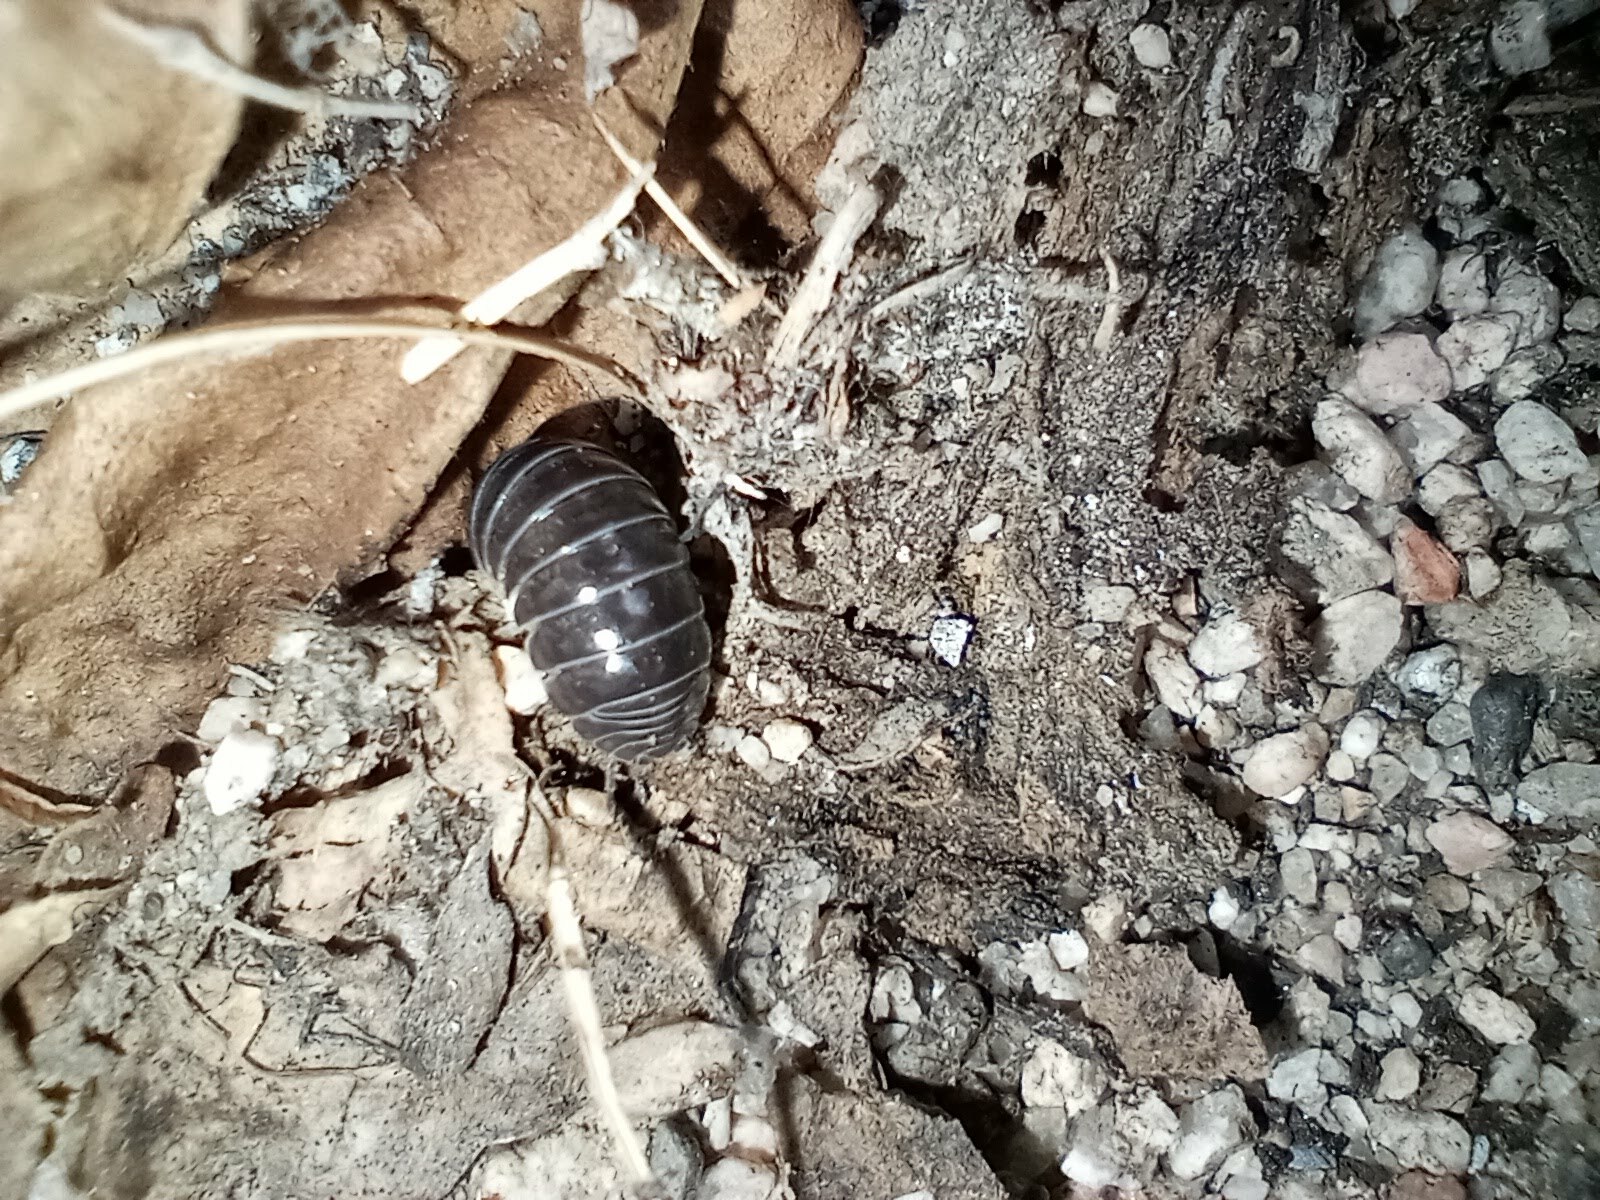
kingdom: Animalia
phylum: Arthropoda
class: Malacostraca
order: Isopoda
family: Armadillidiidae
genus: Armadillidium
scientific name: Armadillidium vulgare
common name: Common pill woodlouse
